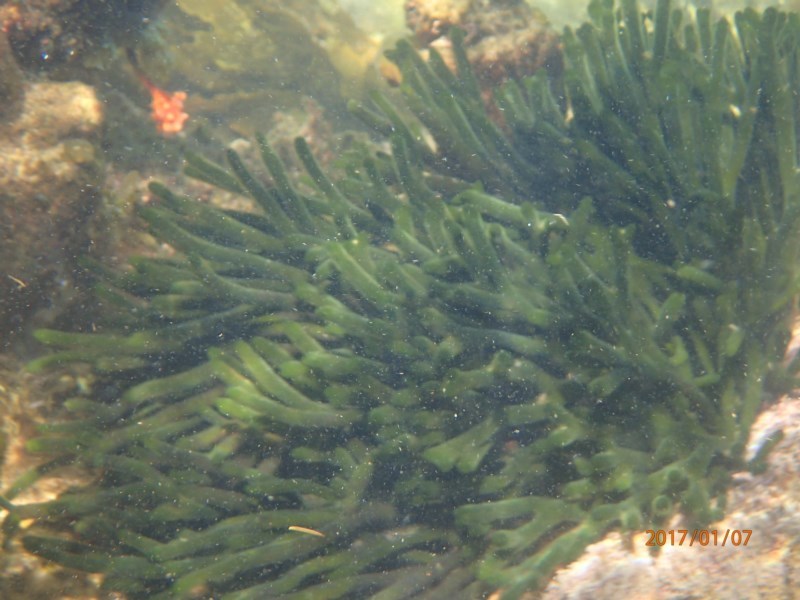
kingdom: Plantae
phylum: Chlorophyta
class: Ulvophyceae
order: Bryopsidales
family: Codiaceae
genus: Codium
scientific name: Codium fragile
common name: Dead man's fingers
